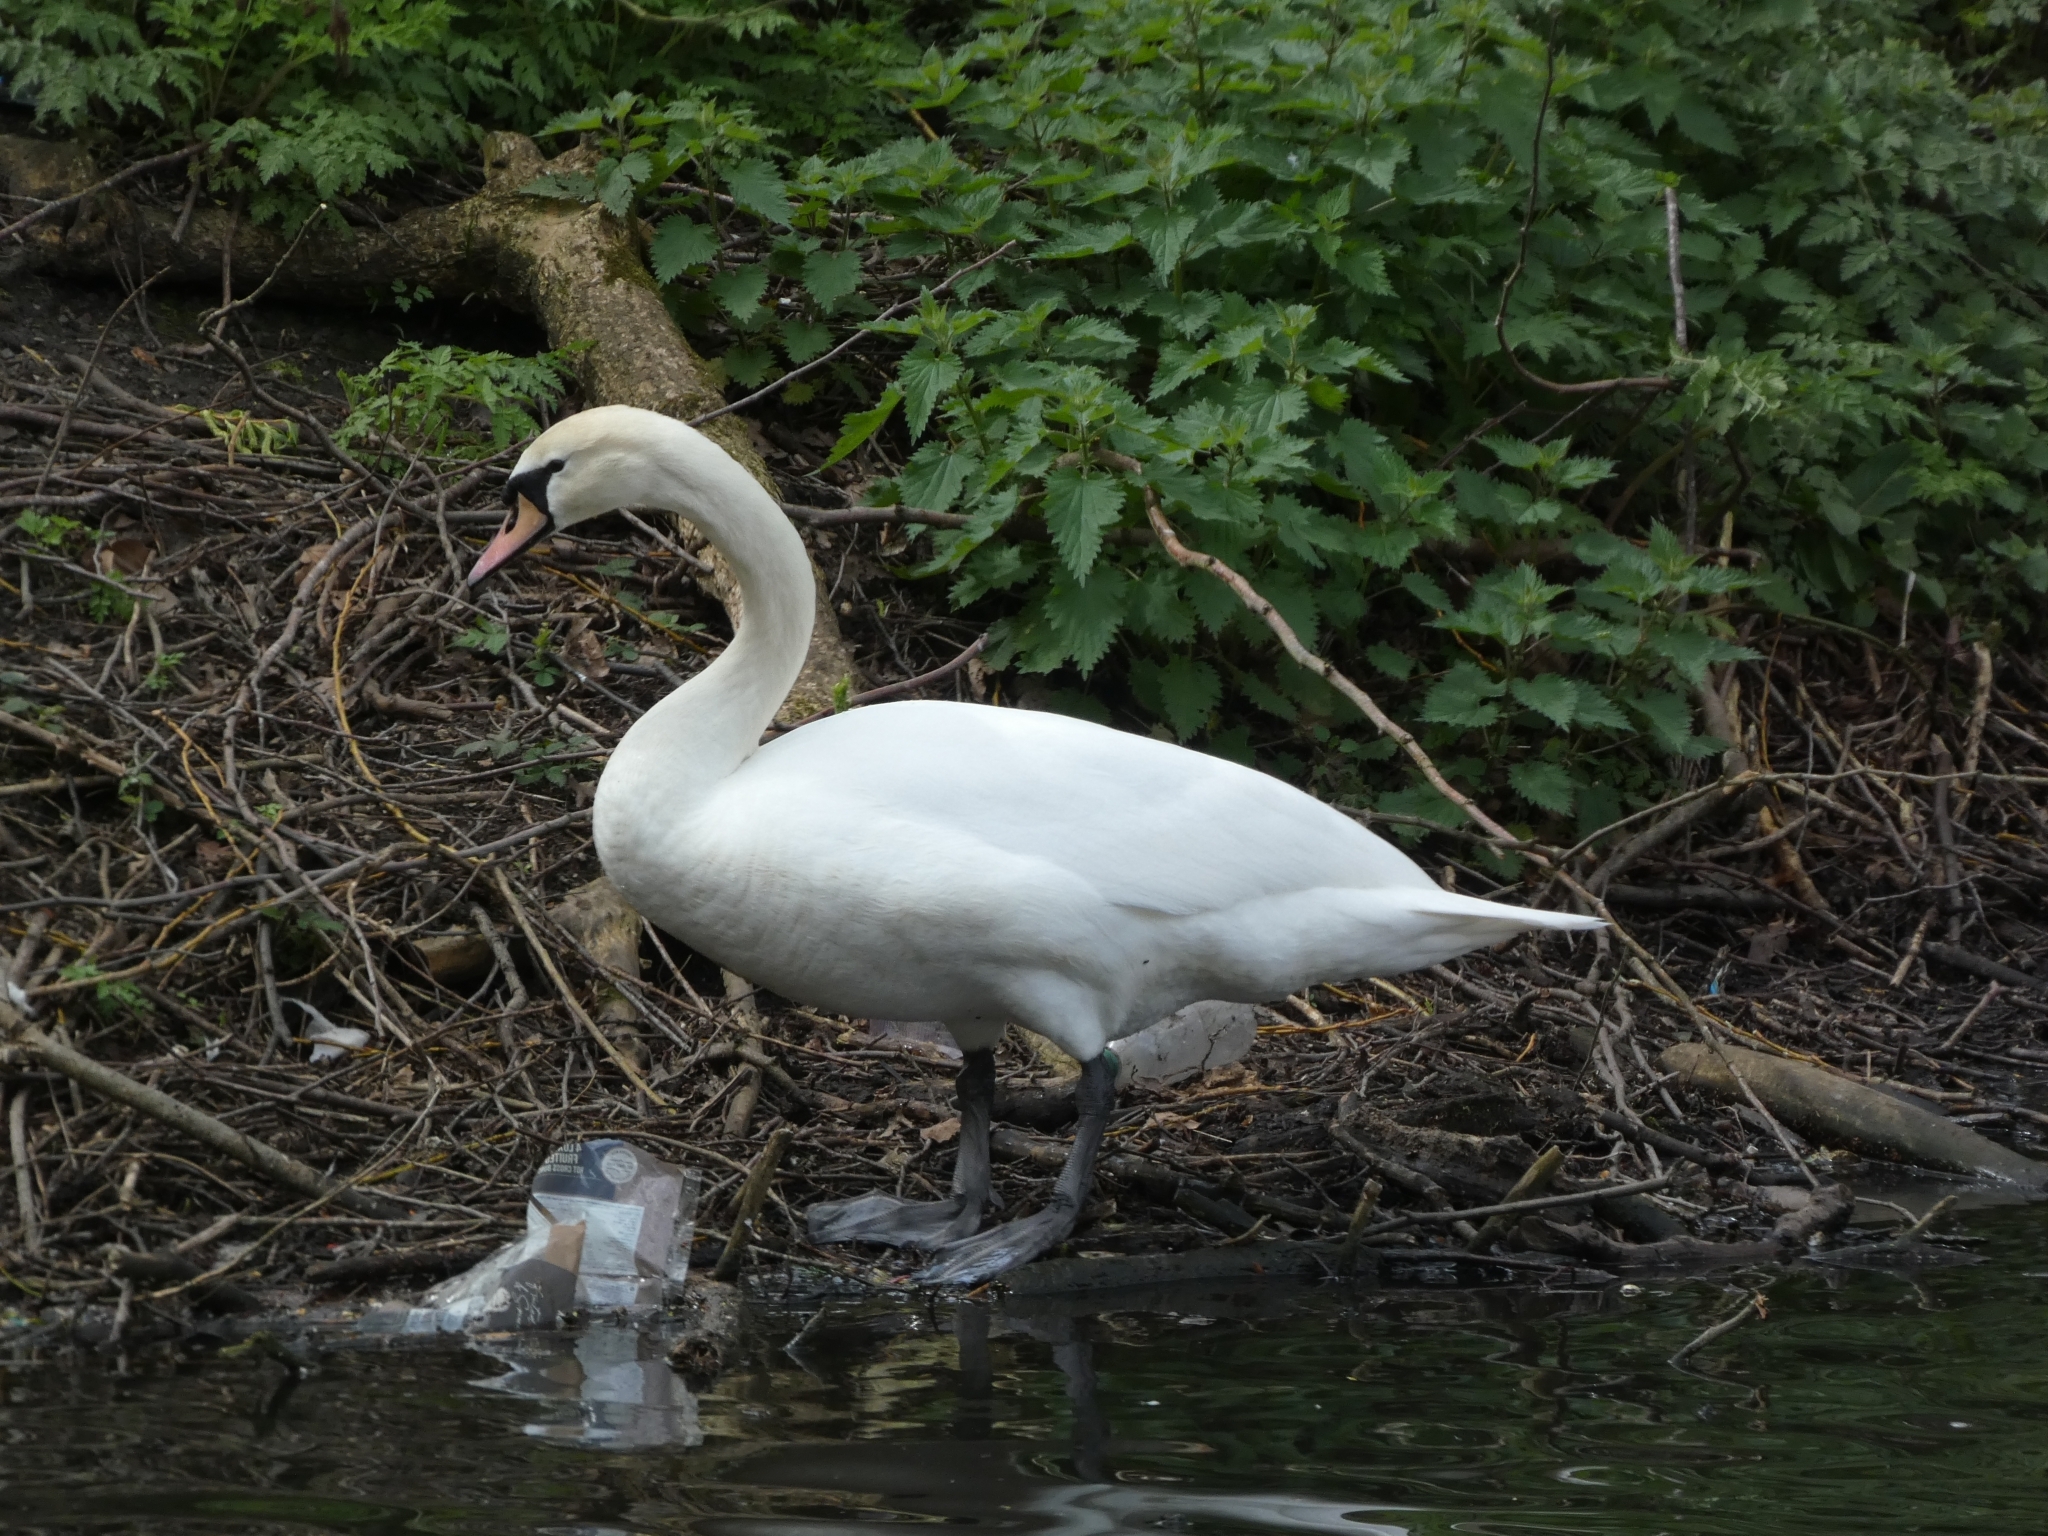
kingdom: Animalia
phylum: Chordata
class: Aves
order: Anseriformes
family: Anatidae
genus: Cygnus
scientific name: Cygnus olor
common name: Mute swan
